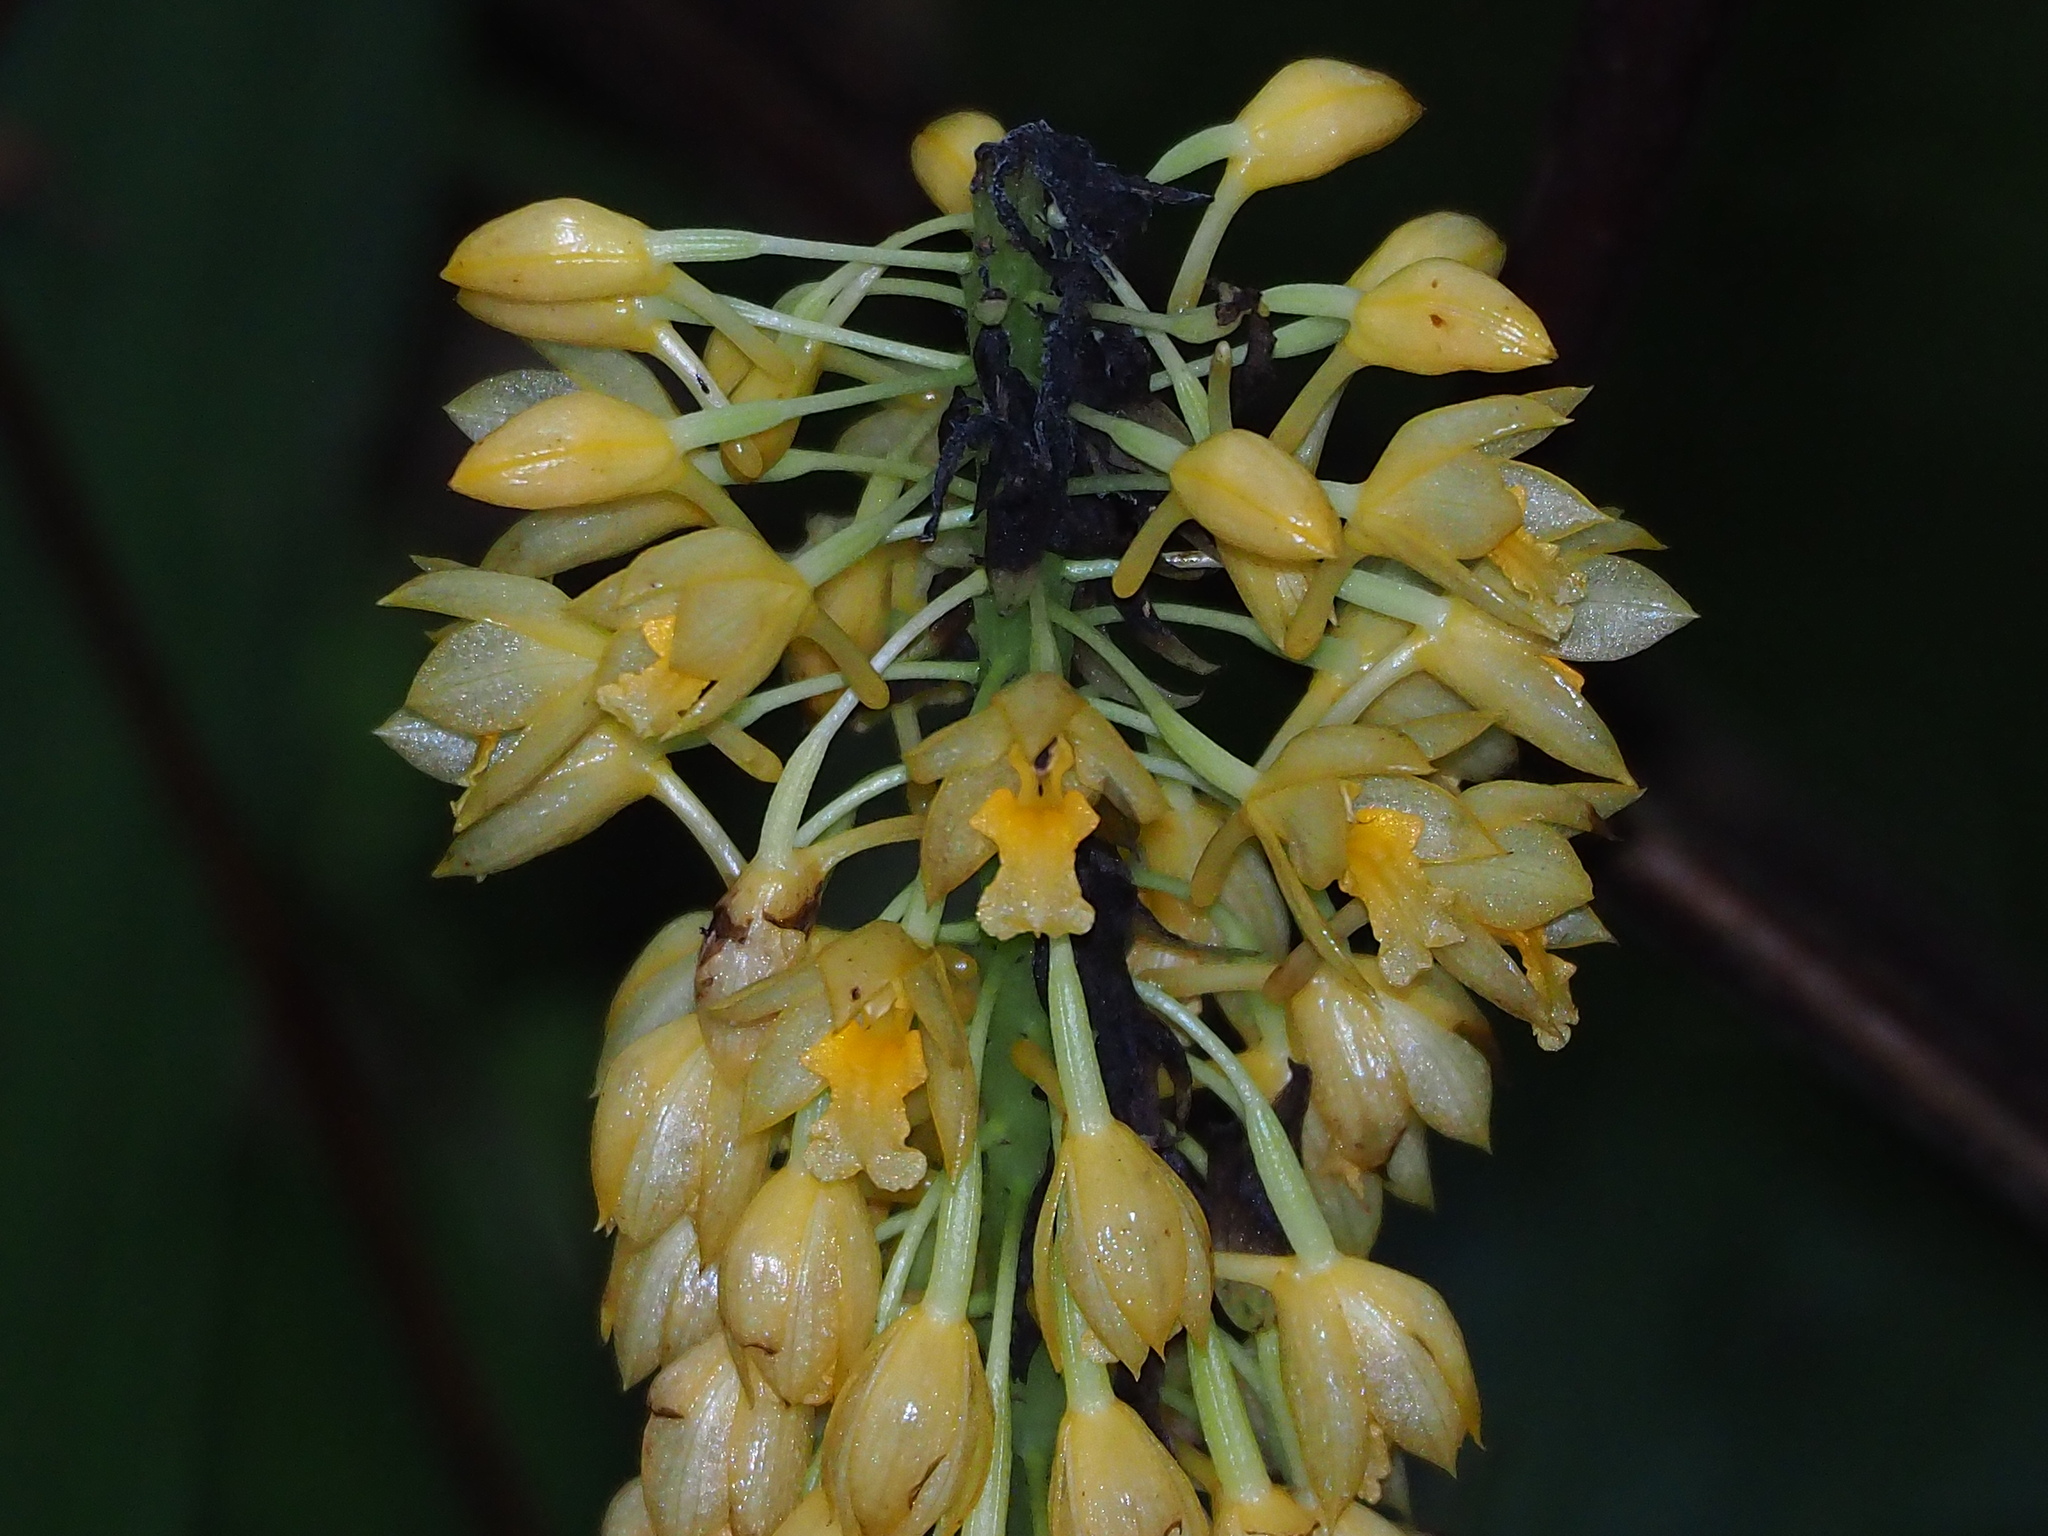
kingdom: Plantae
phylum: Tracheophyta
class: Liliopsida
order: Asparagales
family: Orchidaceae
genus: Calanthe
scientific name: Calanthe formosana
